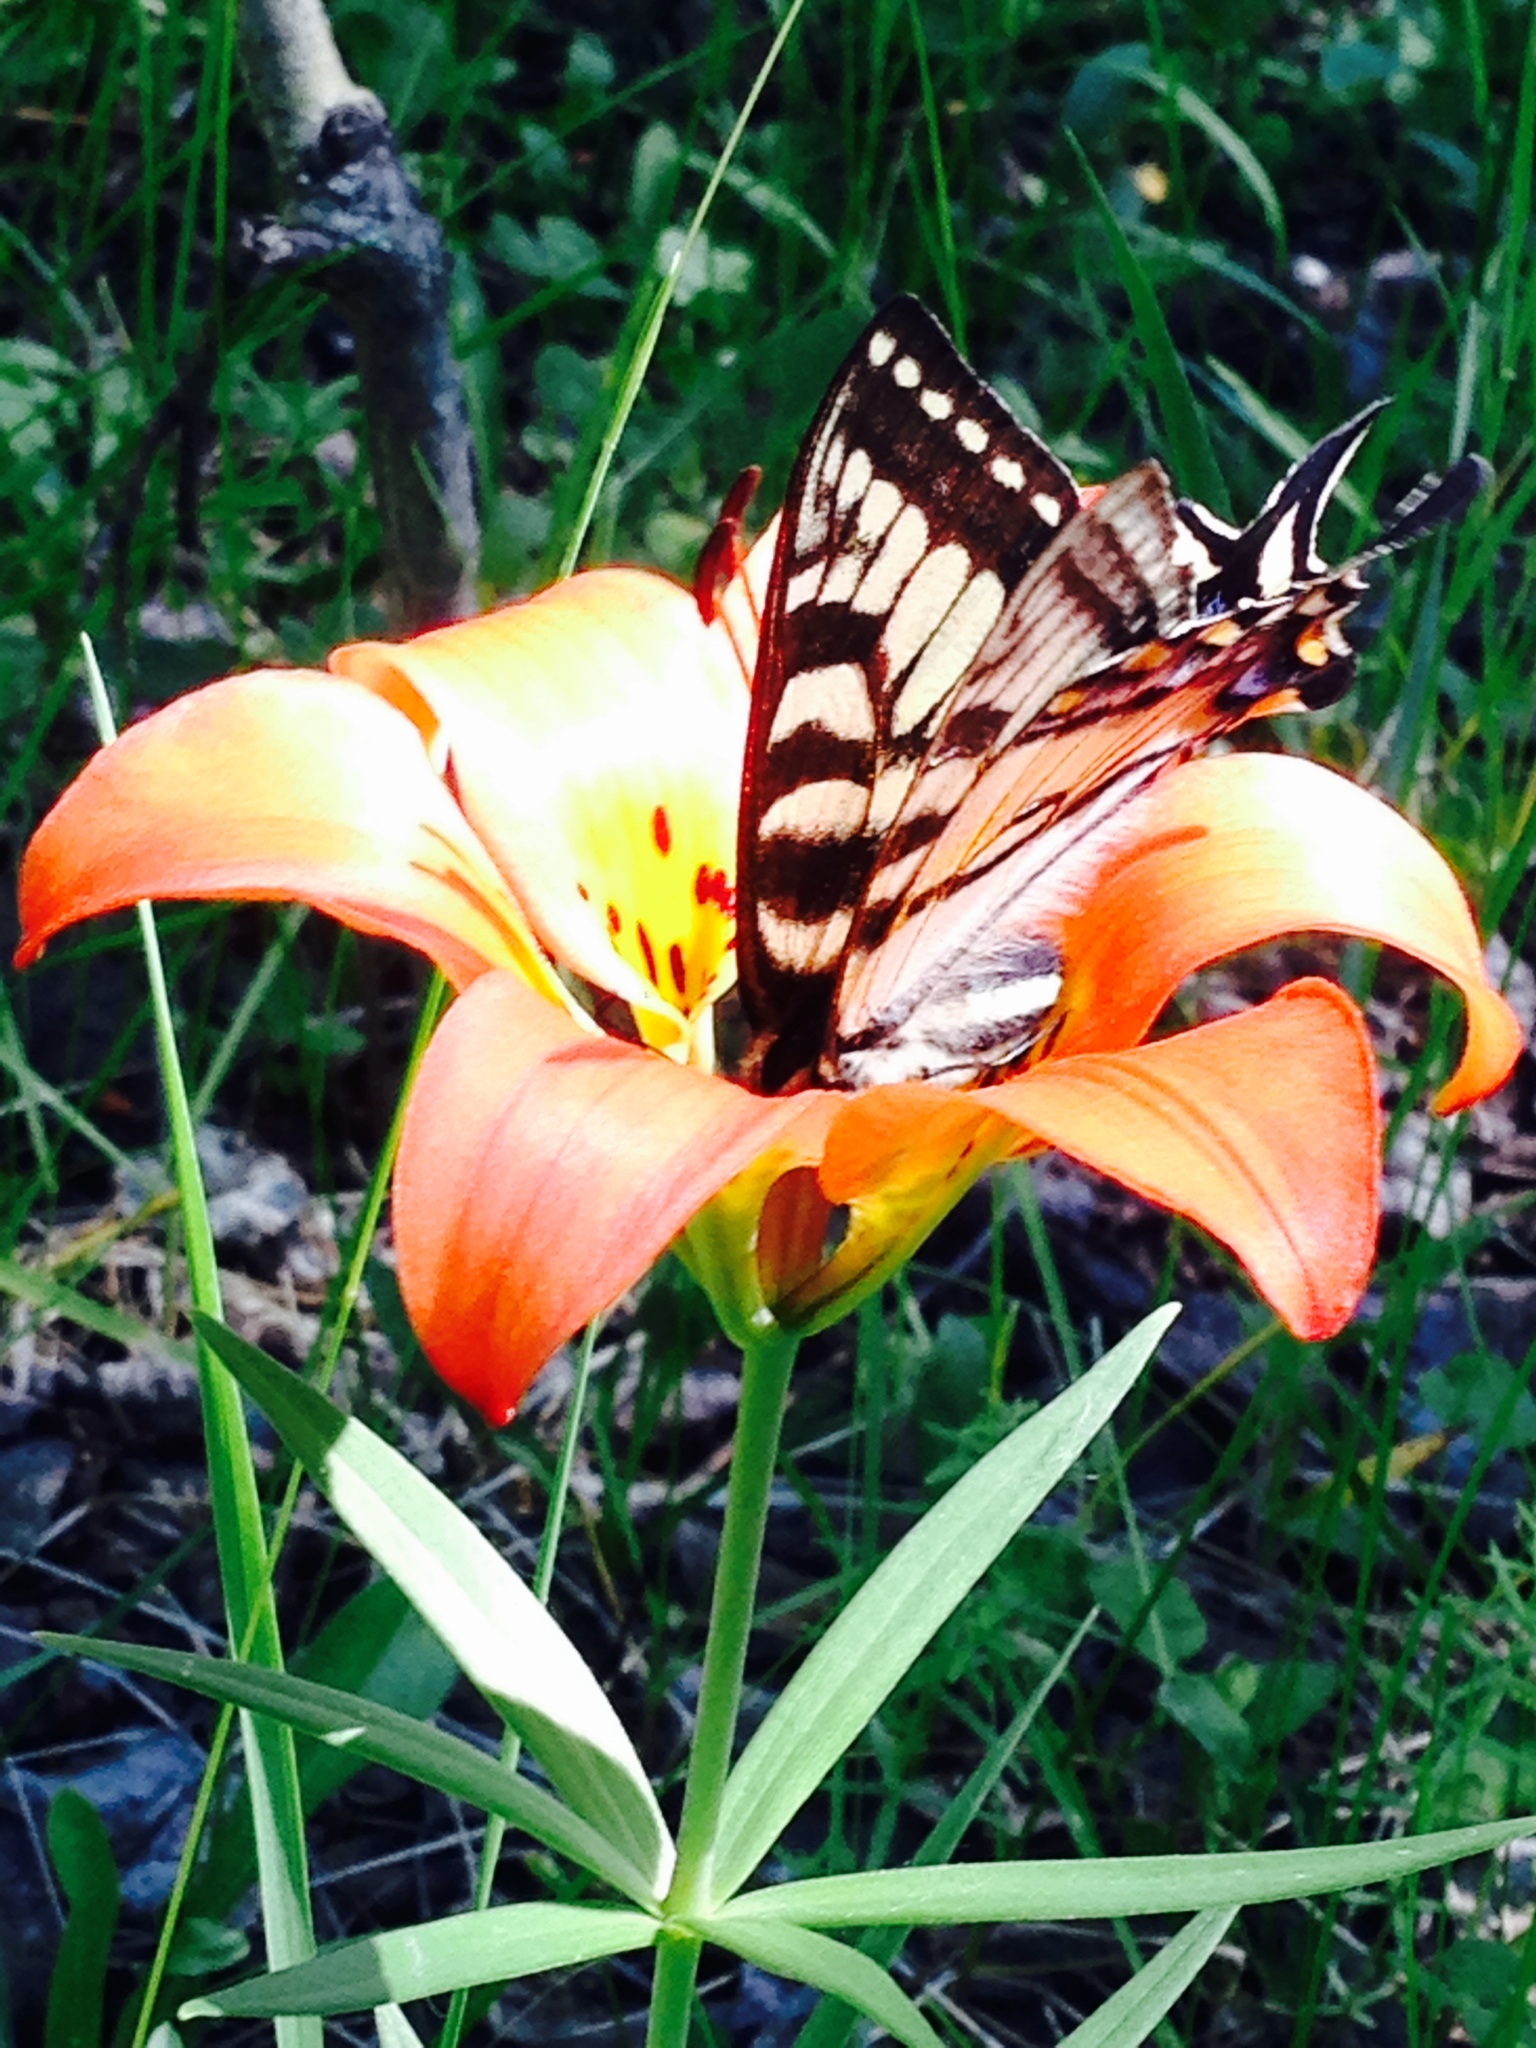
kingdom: Animalia
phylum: Arthropoda
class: Insecta
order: Lepidoptera
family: Papilionidae
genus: Papilio
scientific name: Papilio canadensis
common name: Canadian tiger swallowtail
